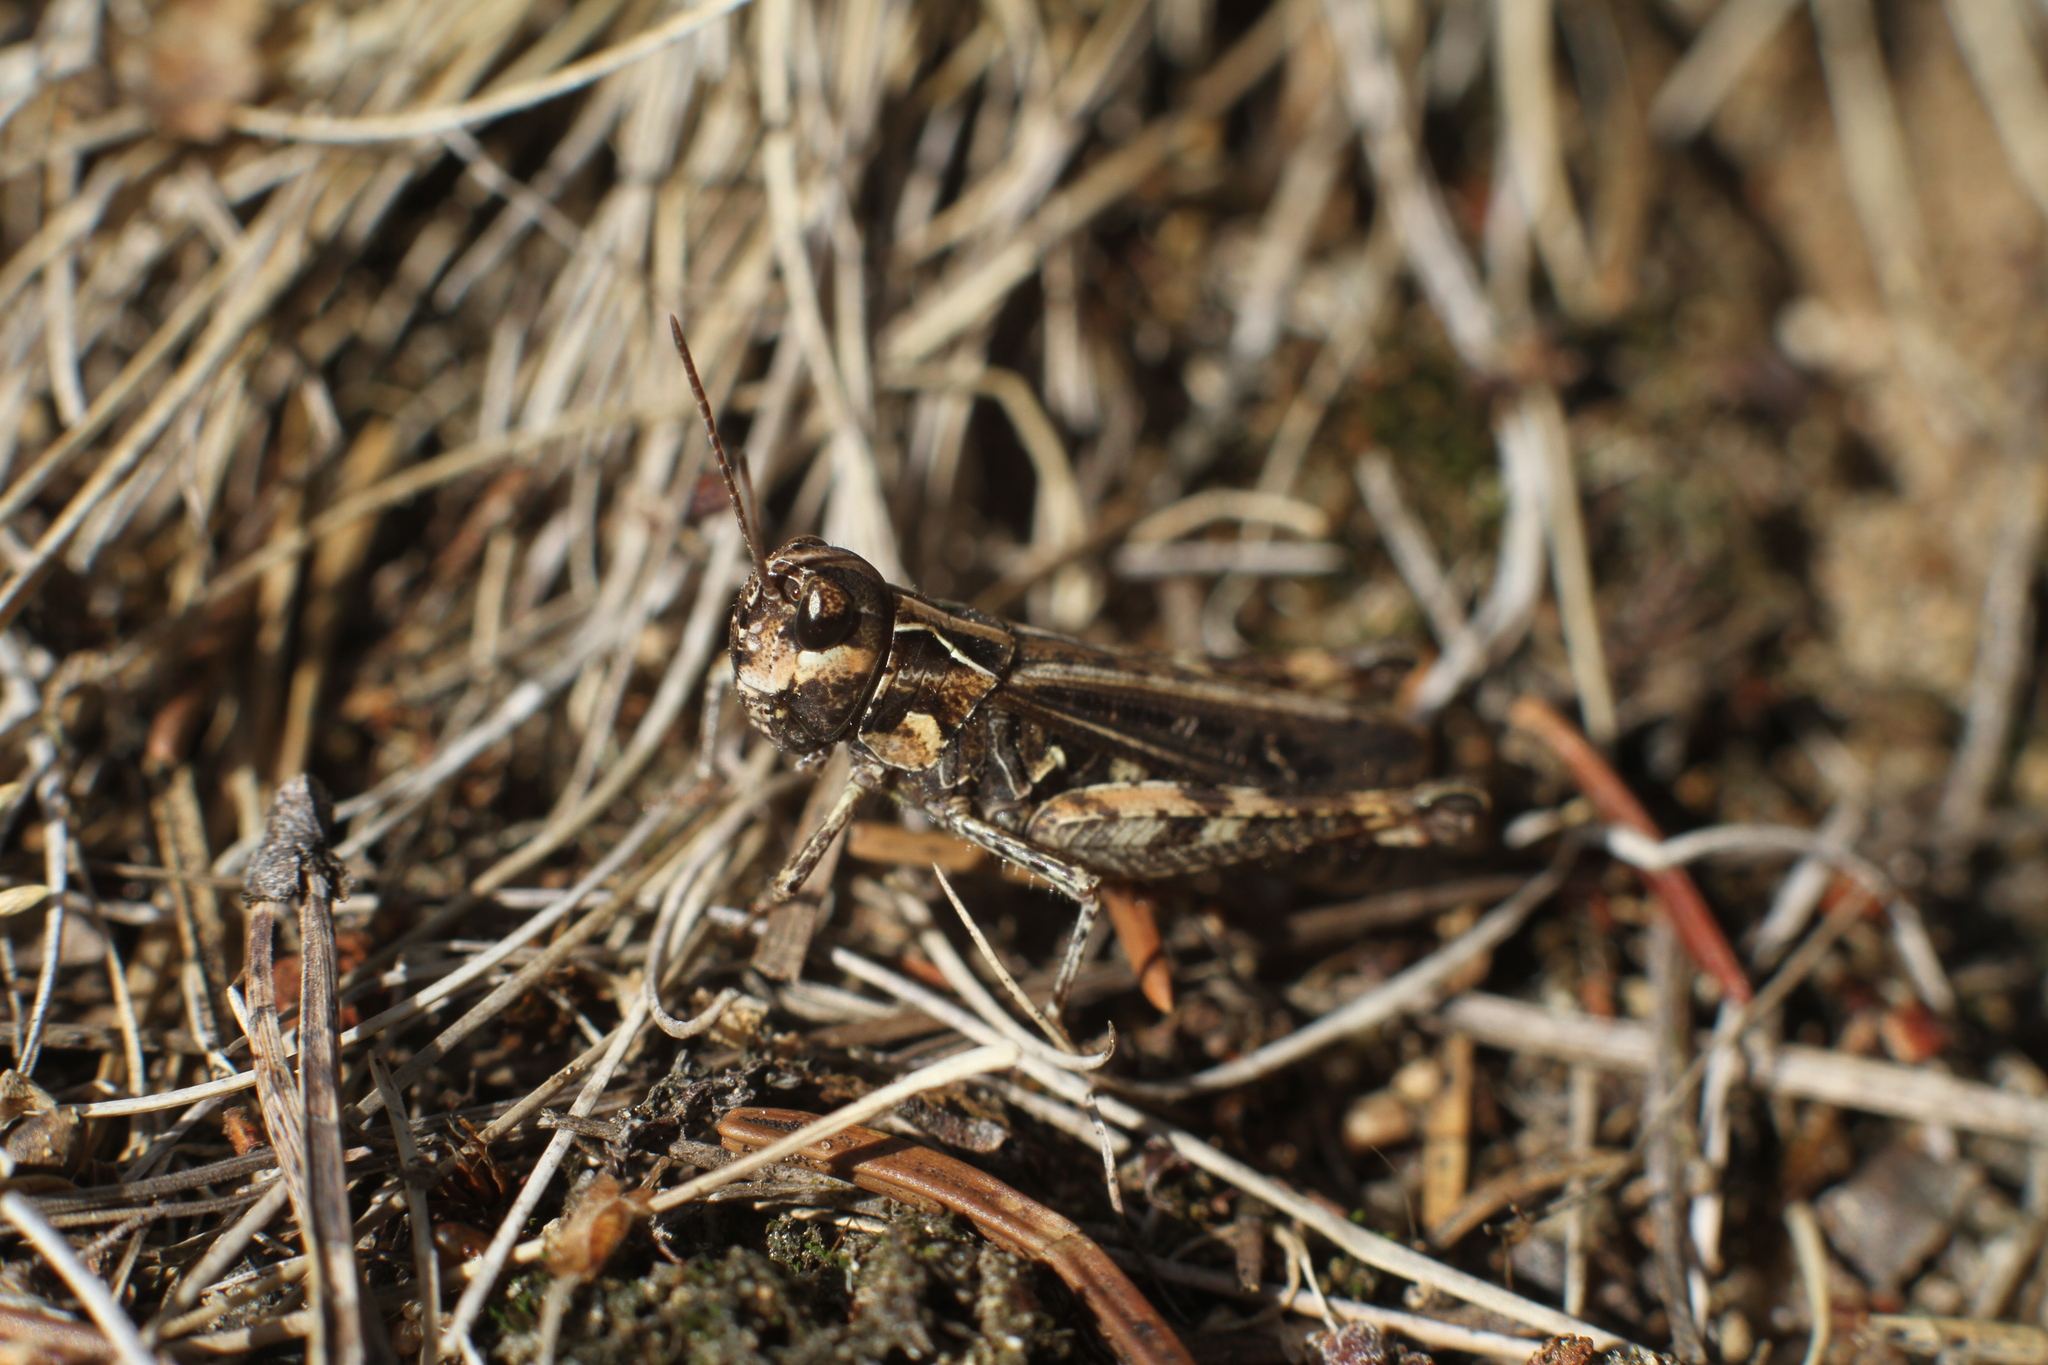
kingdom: Animalia
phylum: Arthropoda
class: Insecta
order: Orthoptera
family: Acrididae
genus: Myrmeleotettix
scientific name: Myrmeleotettix maculatus
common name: Mottled grasshopper
